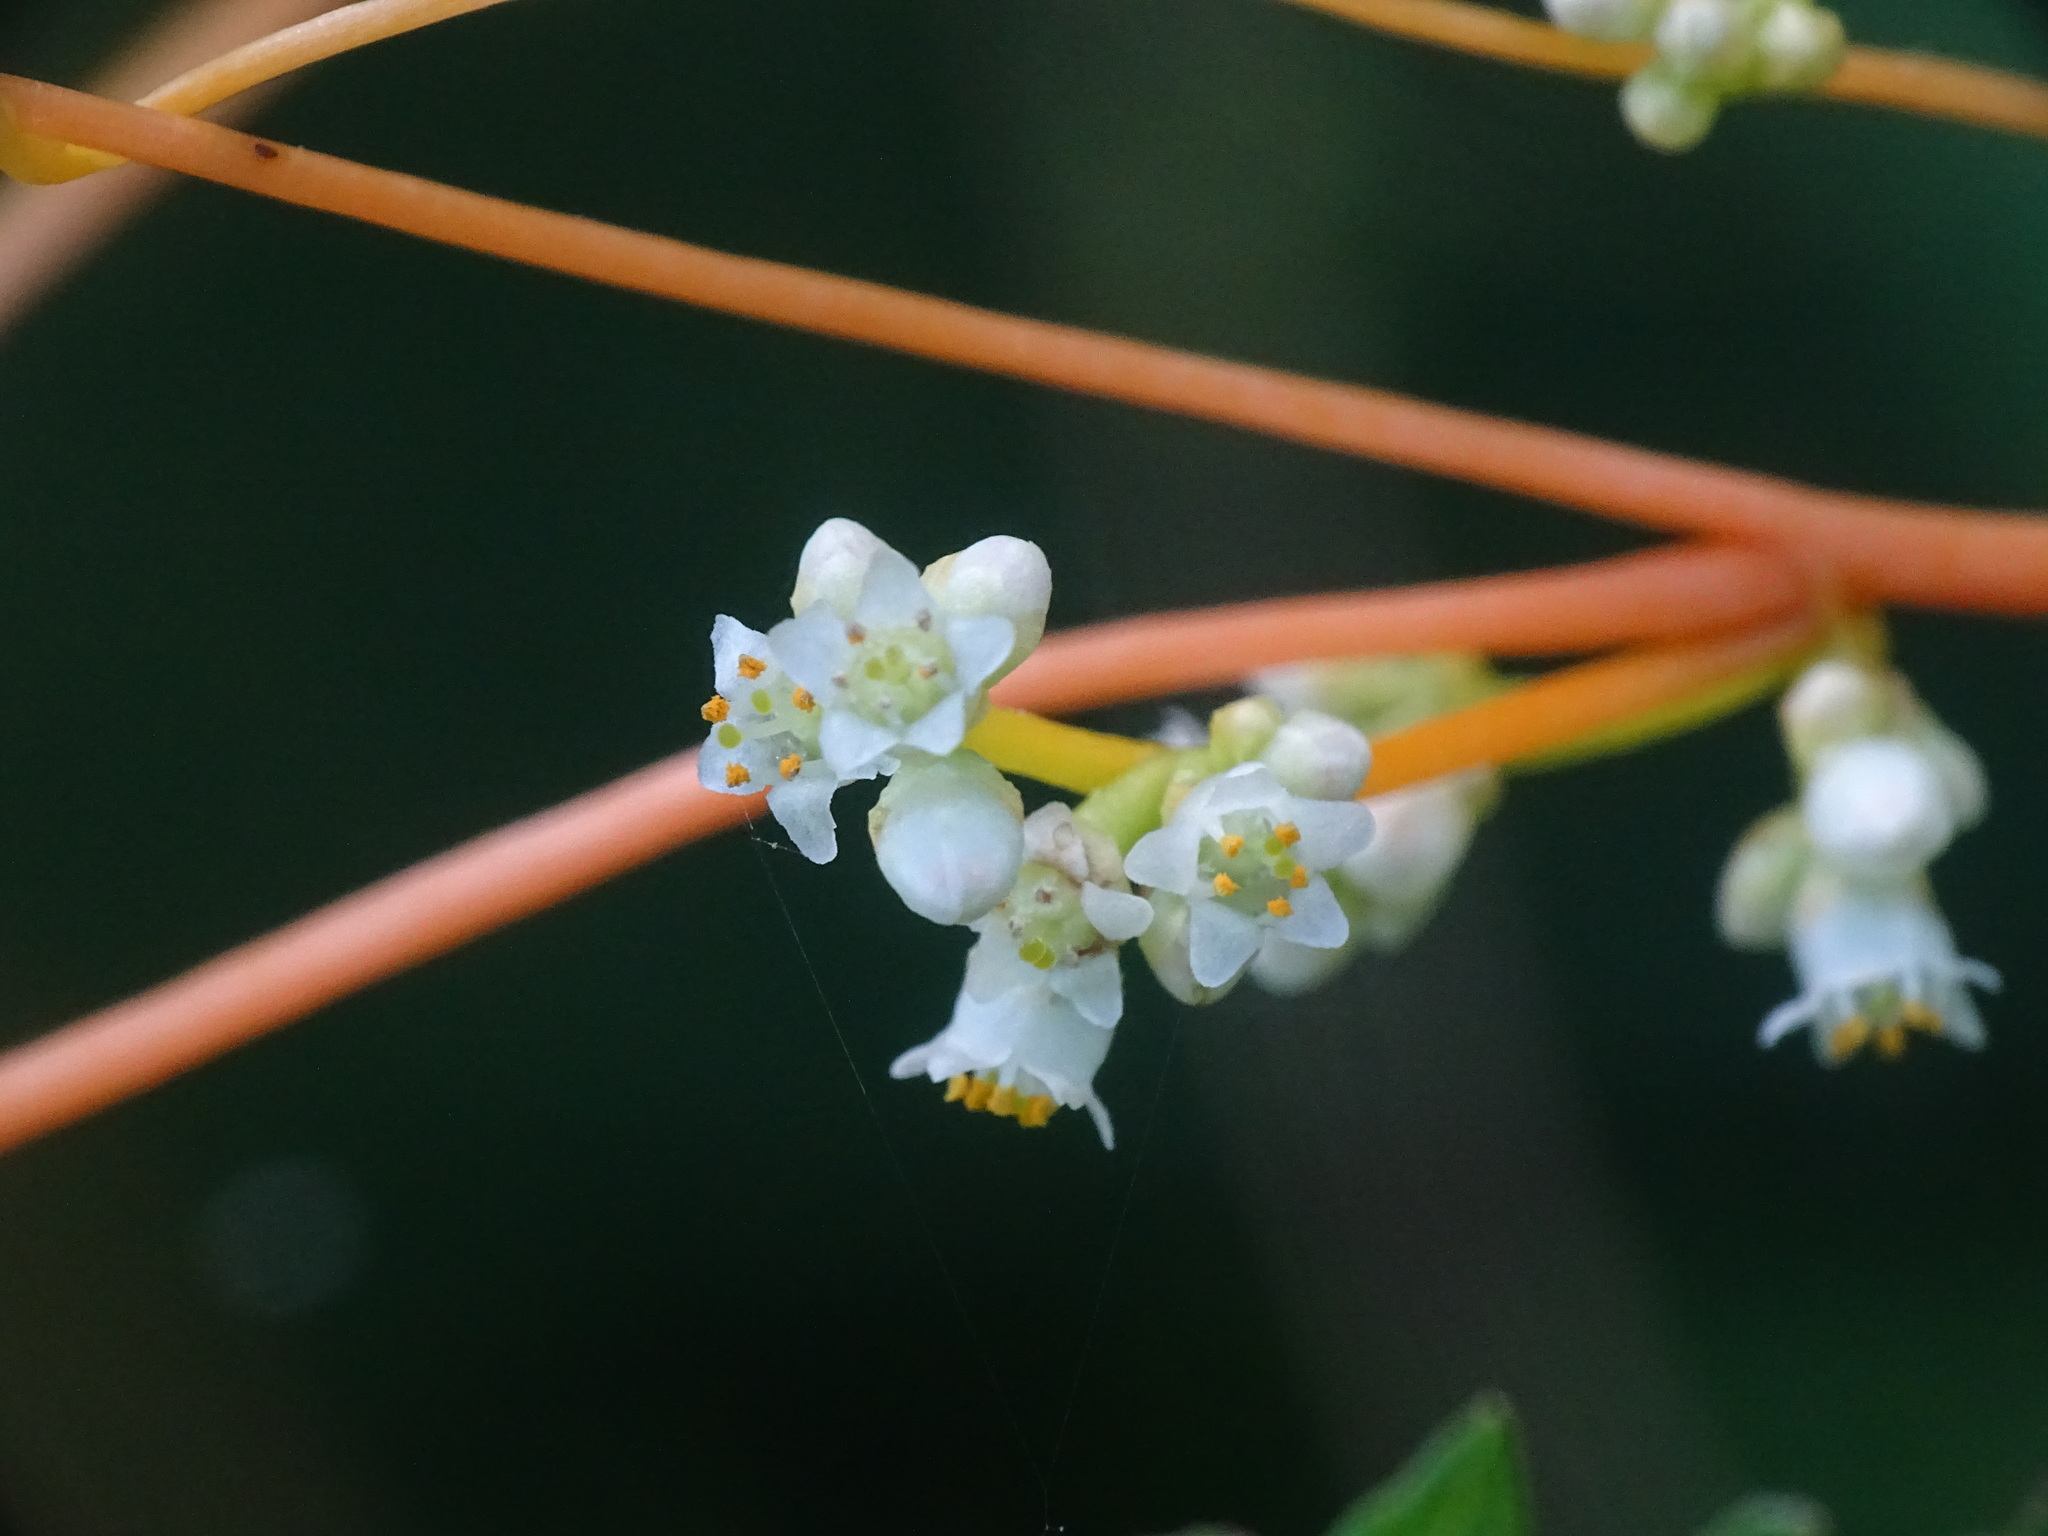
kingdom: Plantae
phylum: Tracheophyta
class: Magnoliopsida
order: Solanales
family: Convolvulaceae
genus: Cuscuta
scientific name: Cuscuta gronovii
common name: Common dodder
